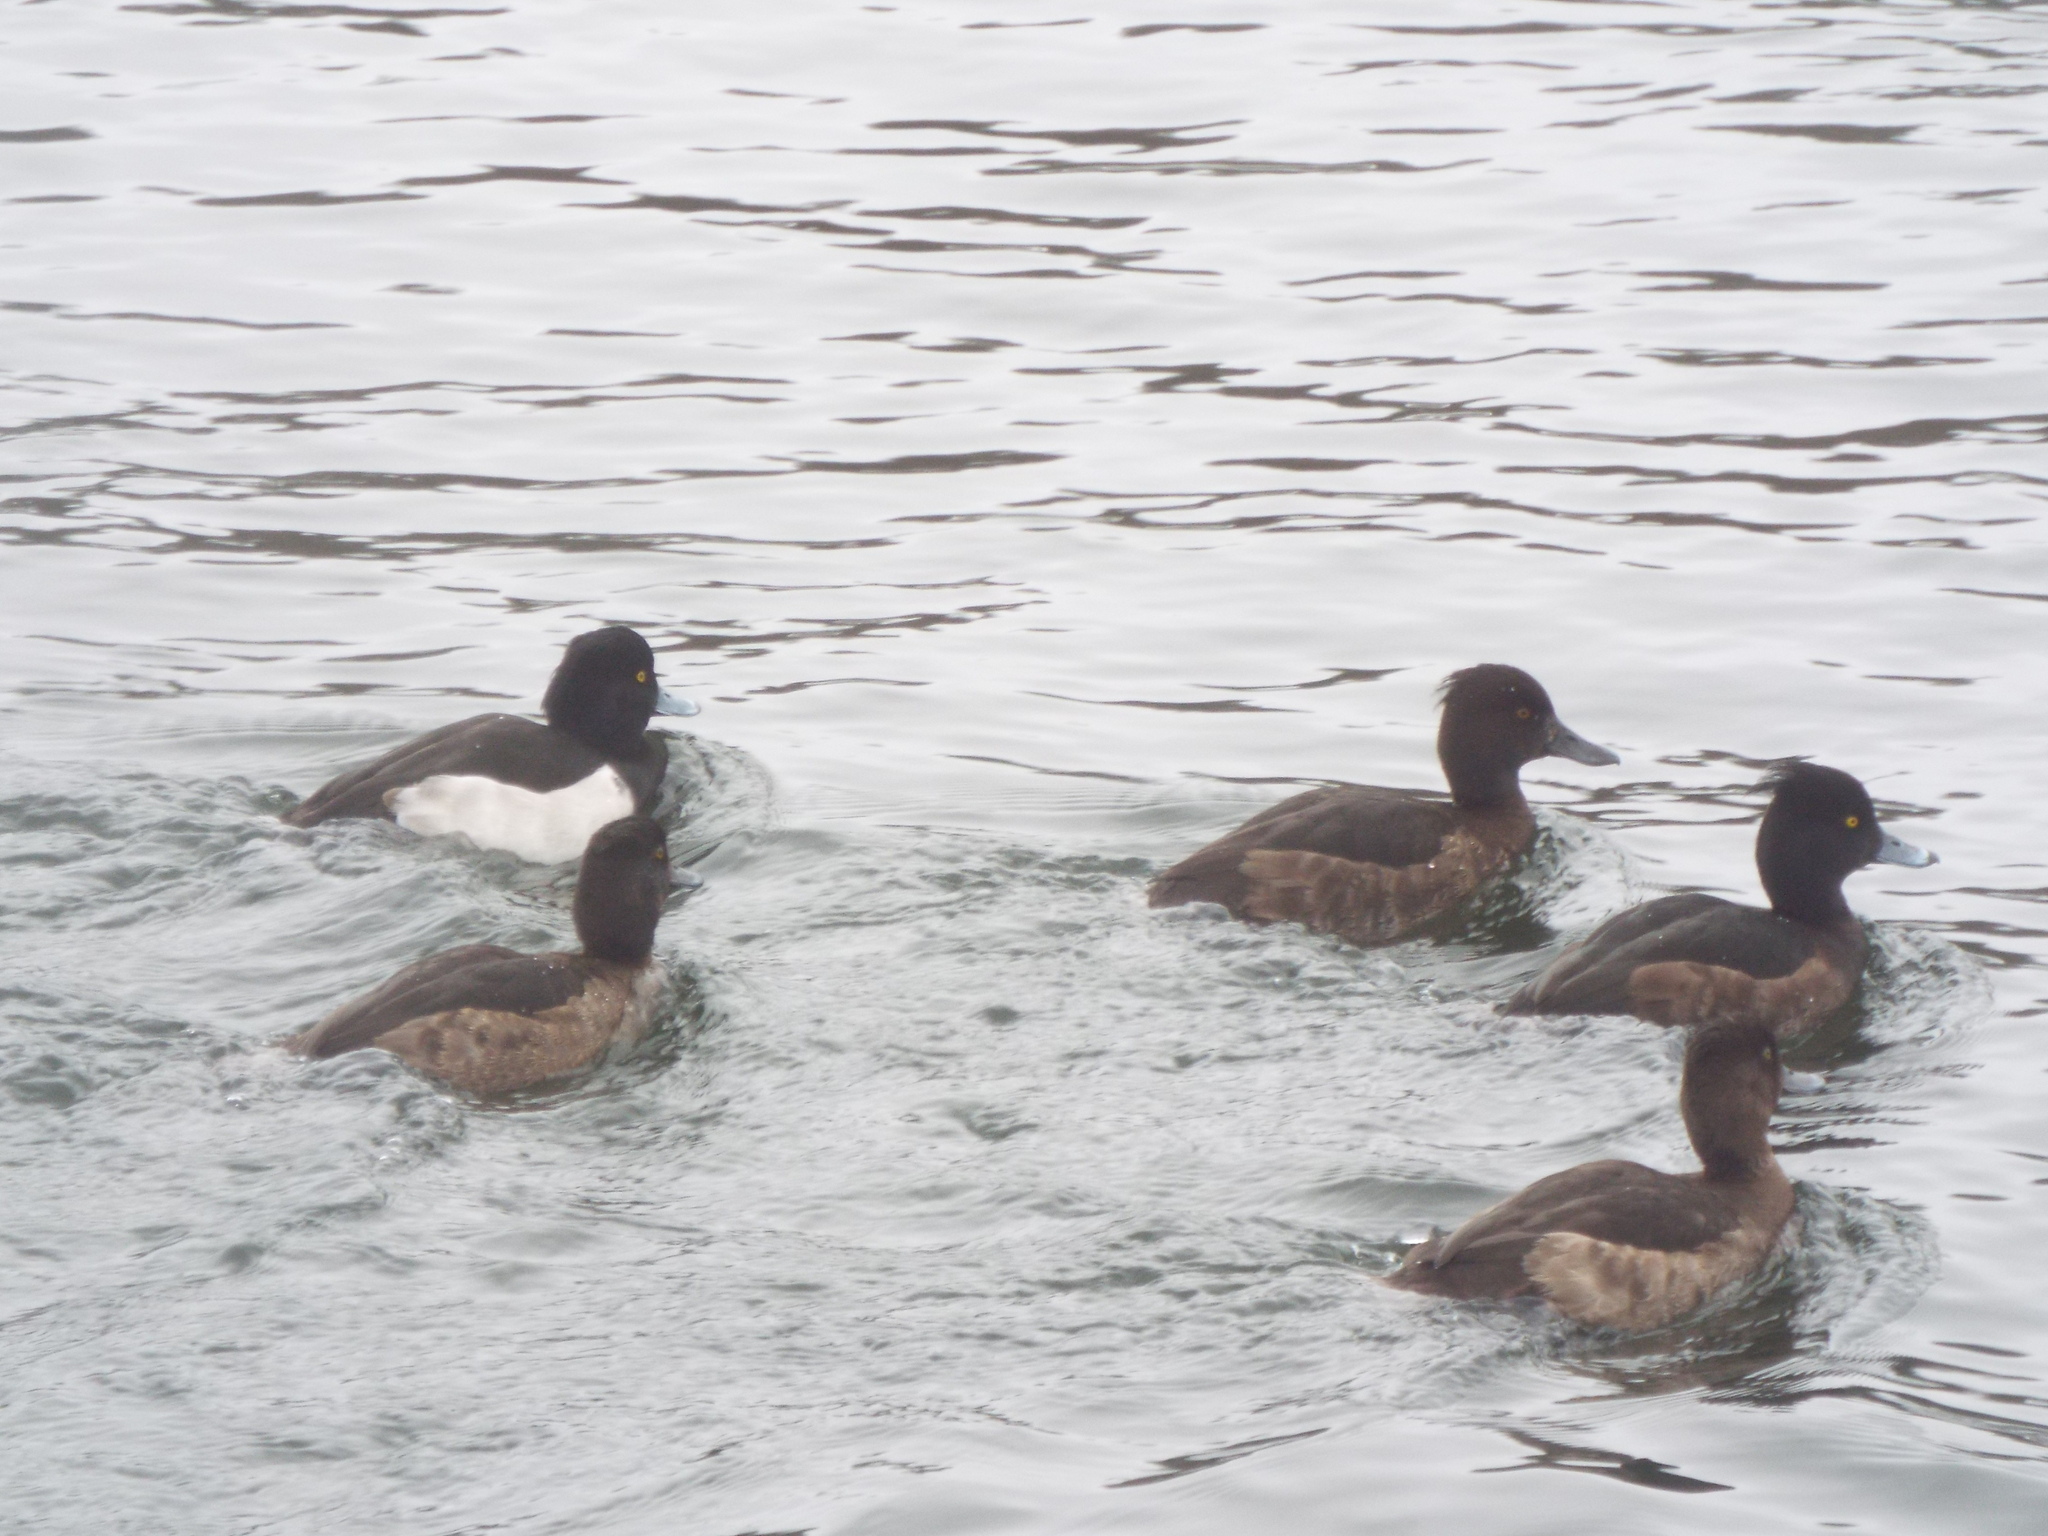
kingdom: Animalia
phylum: Chordata
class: Aves
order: Anseriformes
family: Anatidae
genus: Aythya
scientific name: Aythya fuligula
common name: Tufted duck
